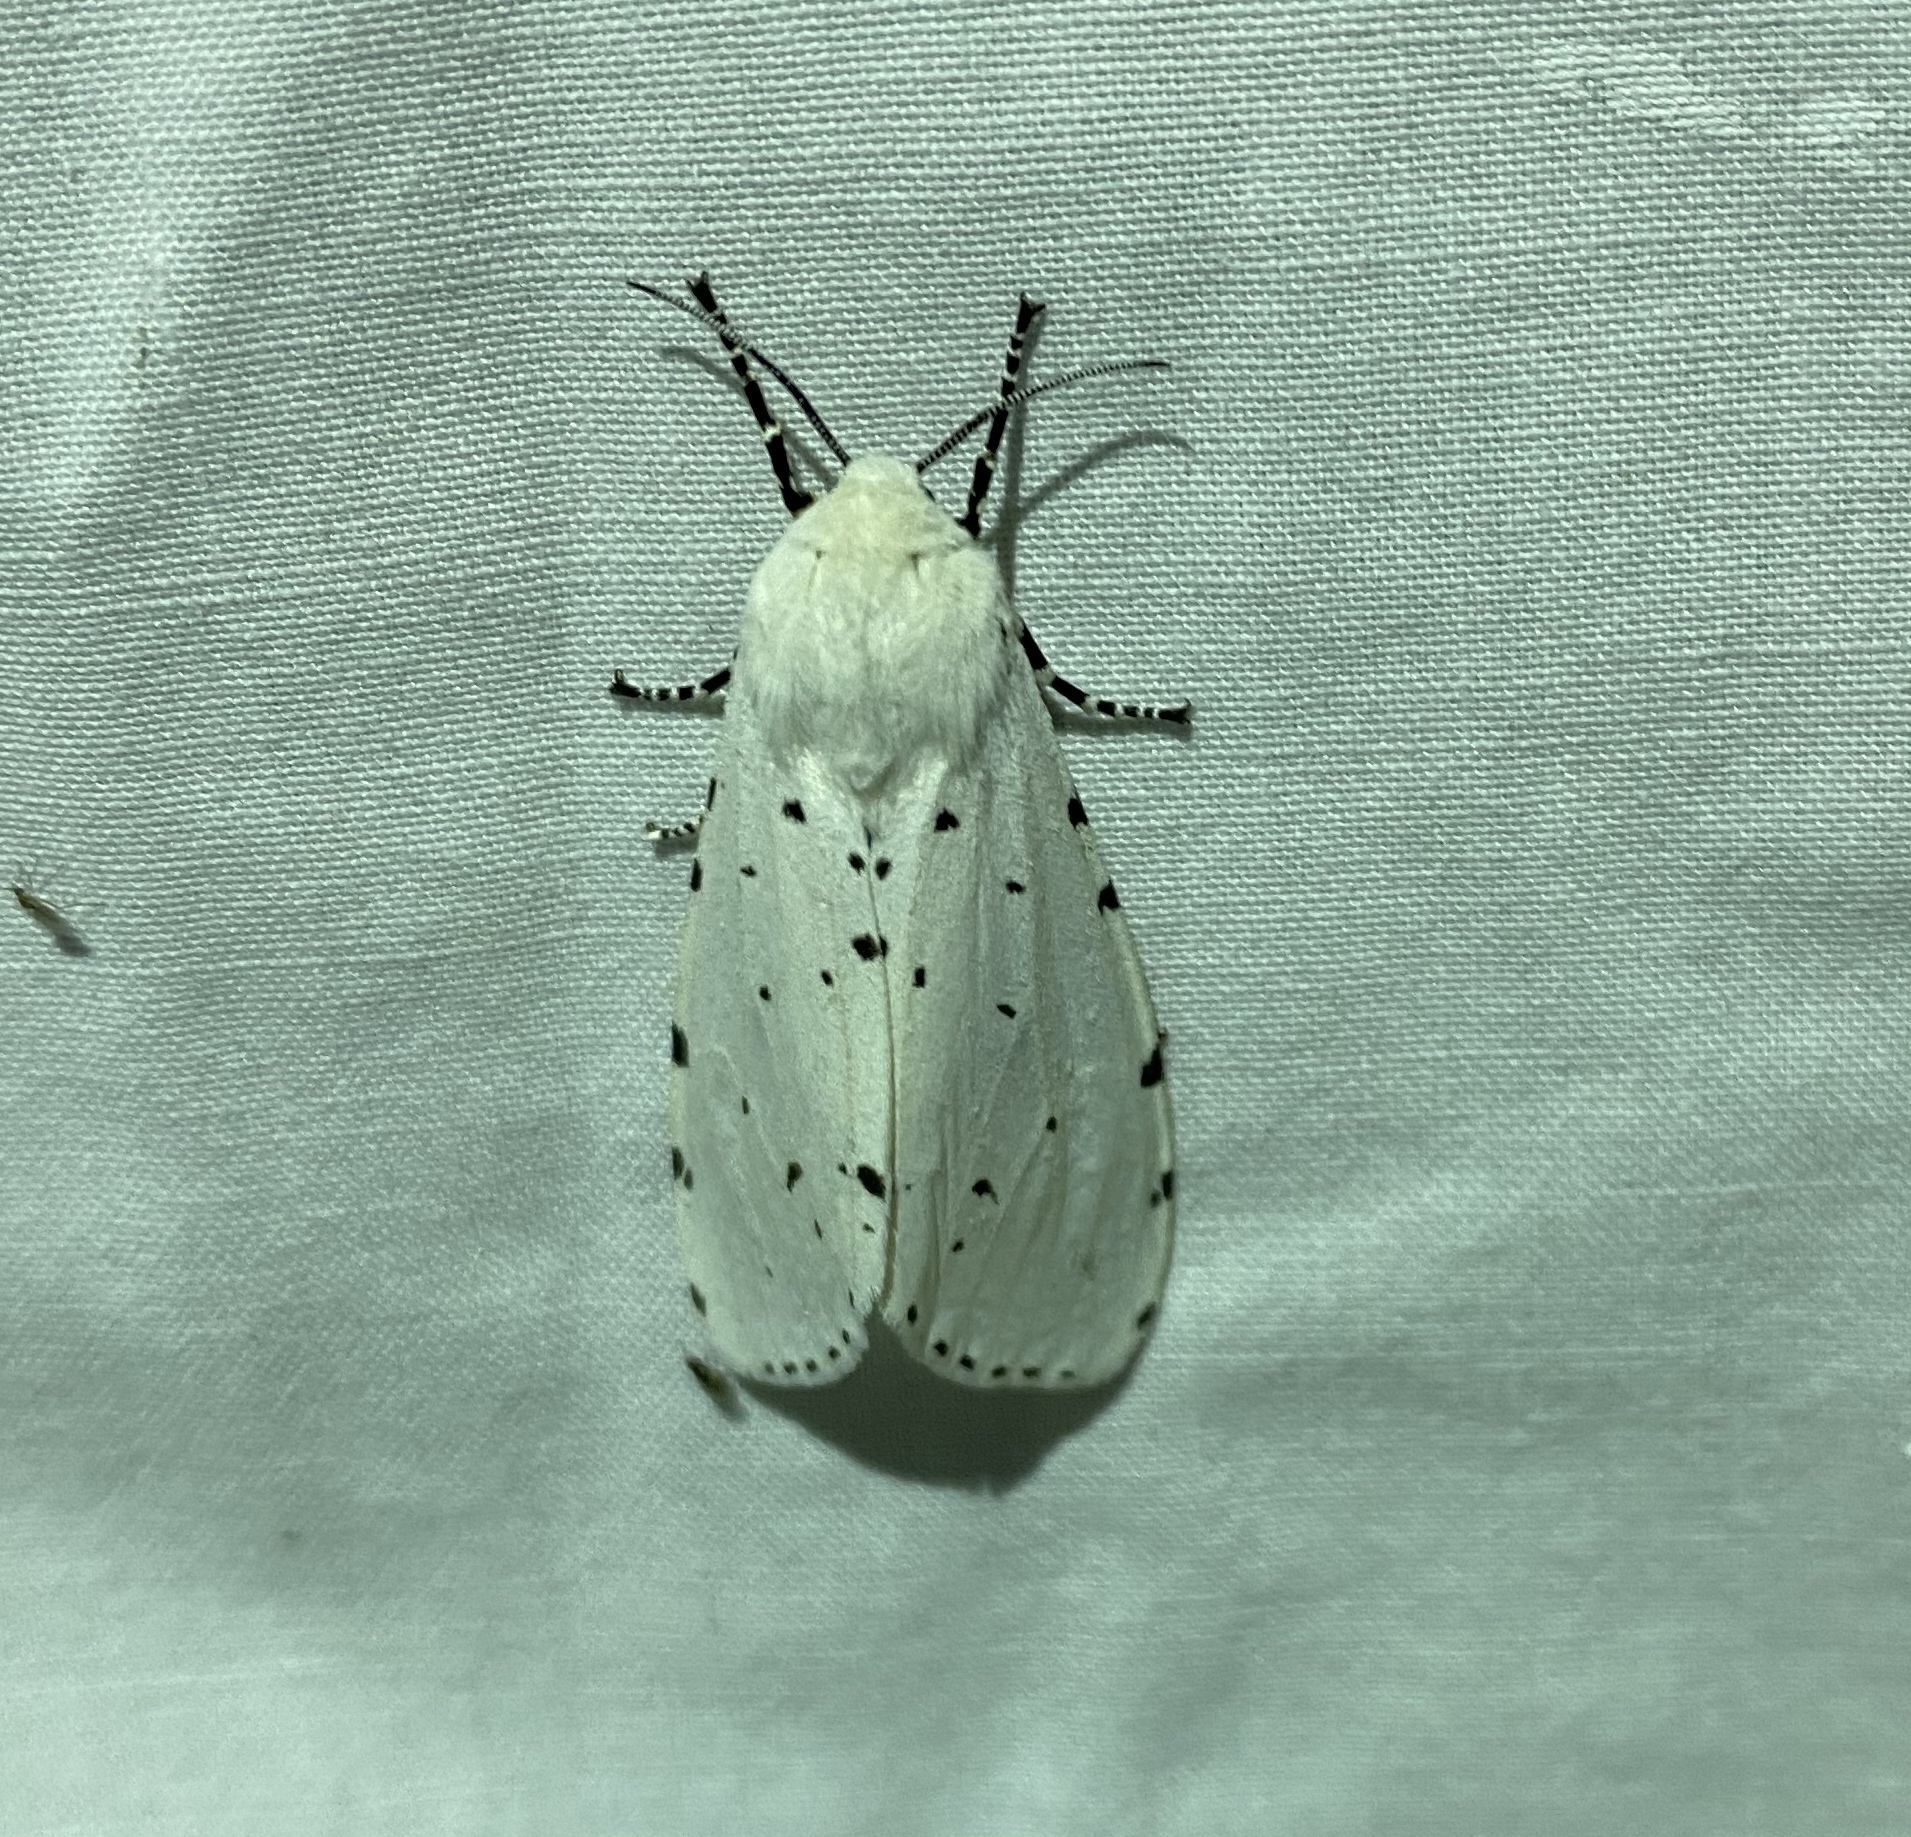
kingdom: Animalia
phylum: Arthropoda
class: Insecta
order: Lepidoptera
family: Erebidae
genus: Estigmene
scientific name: Estigmene acrea
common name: Salt marsh moth
